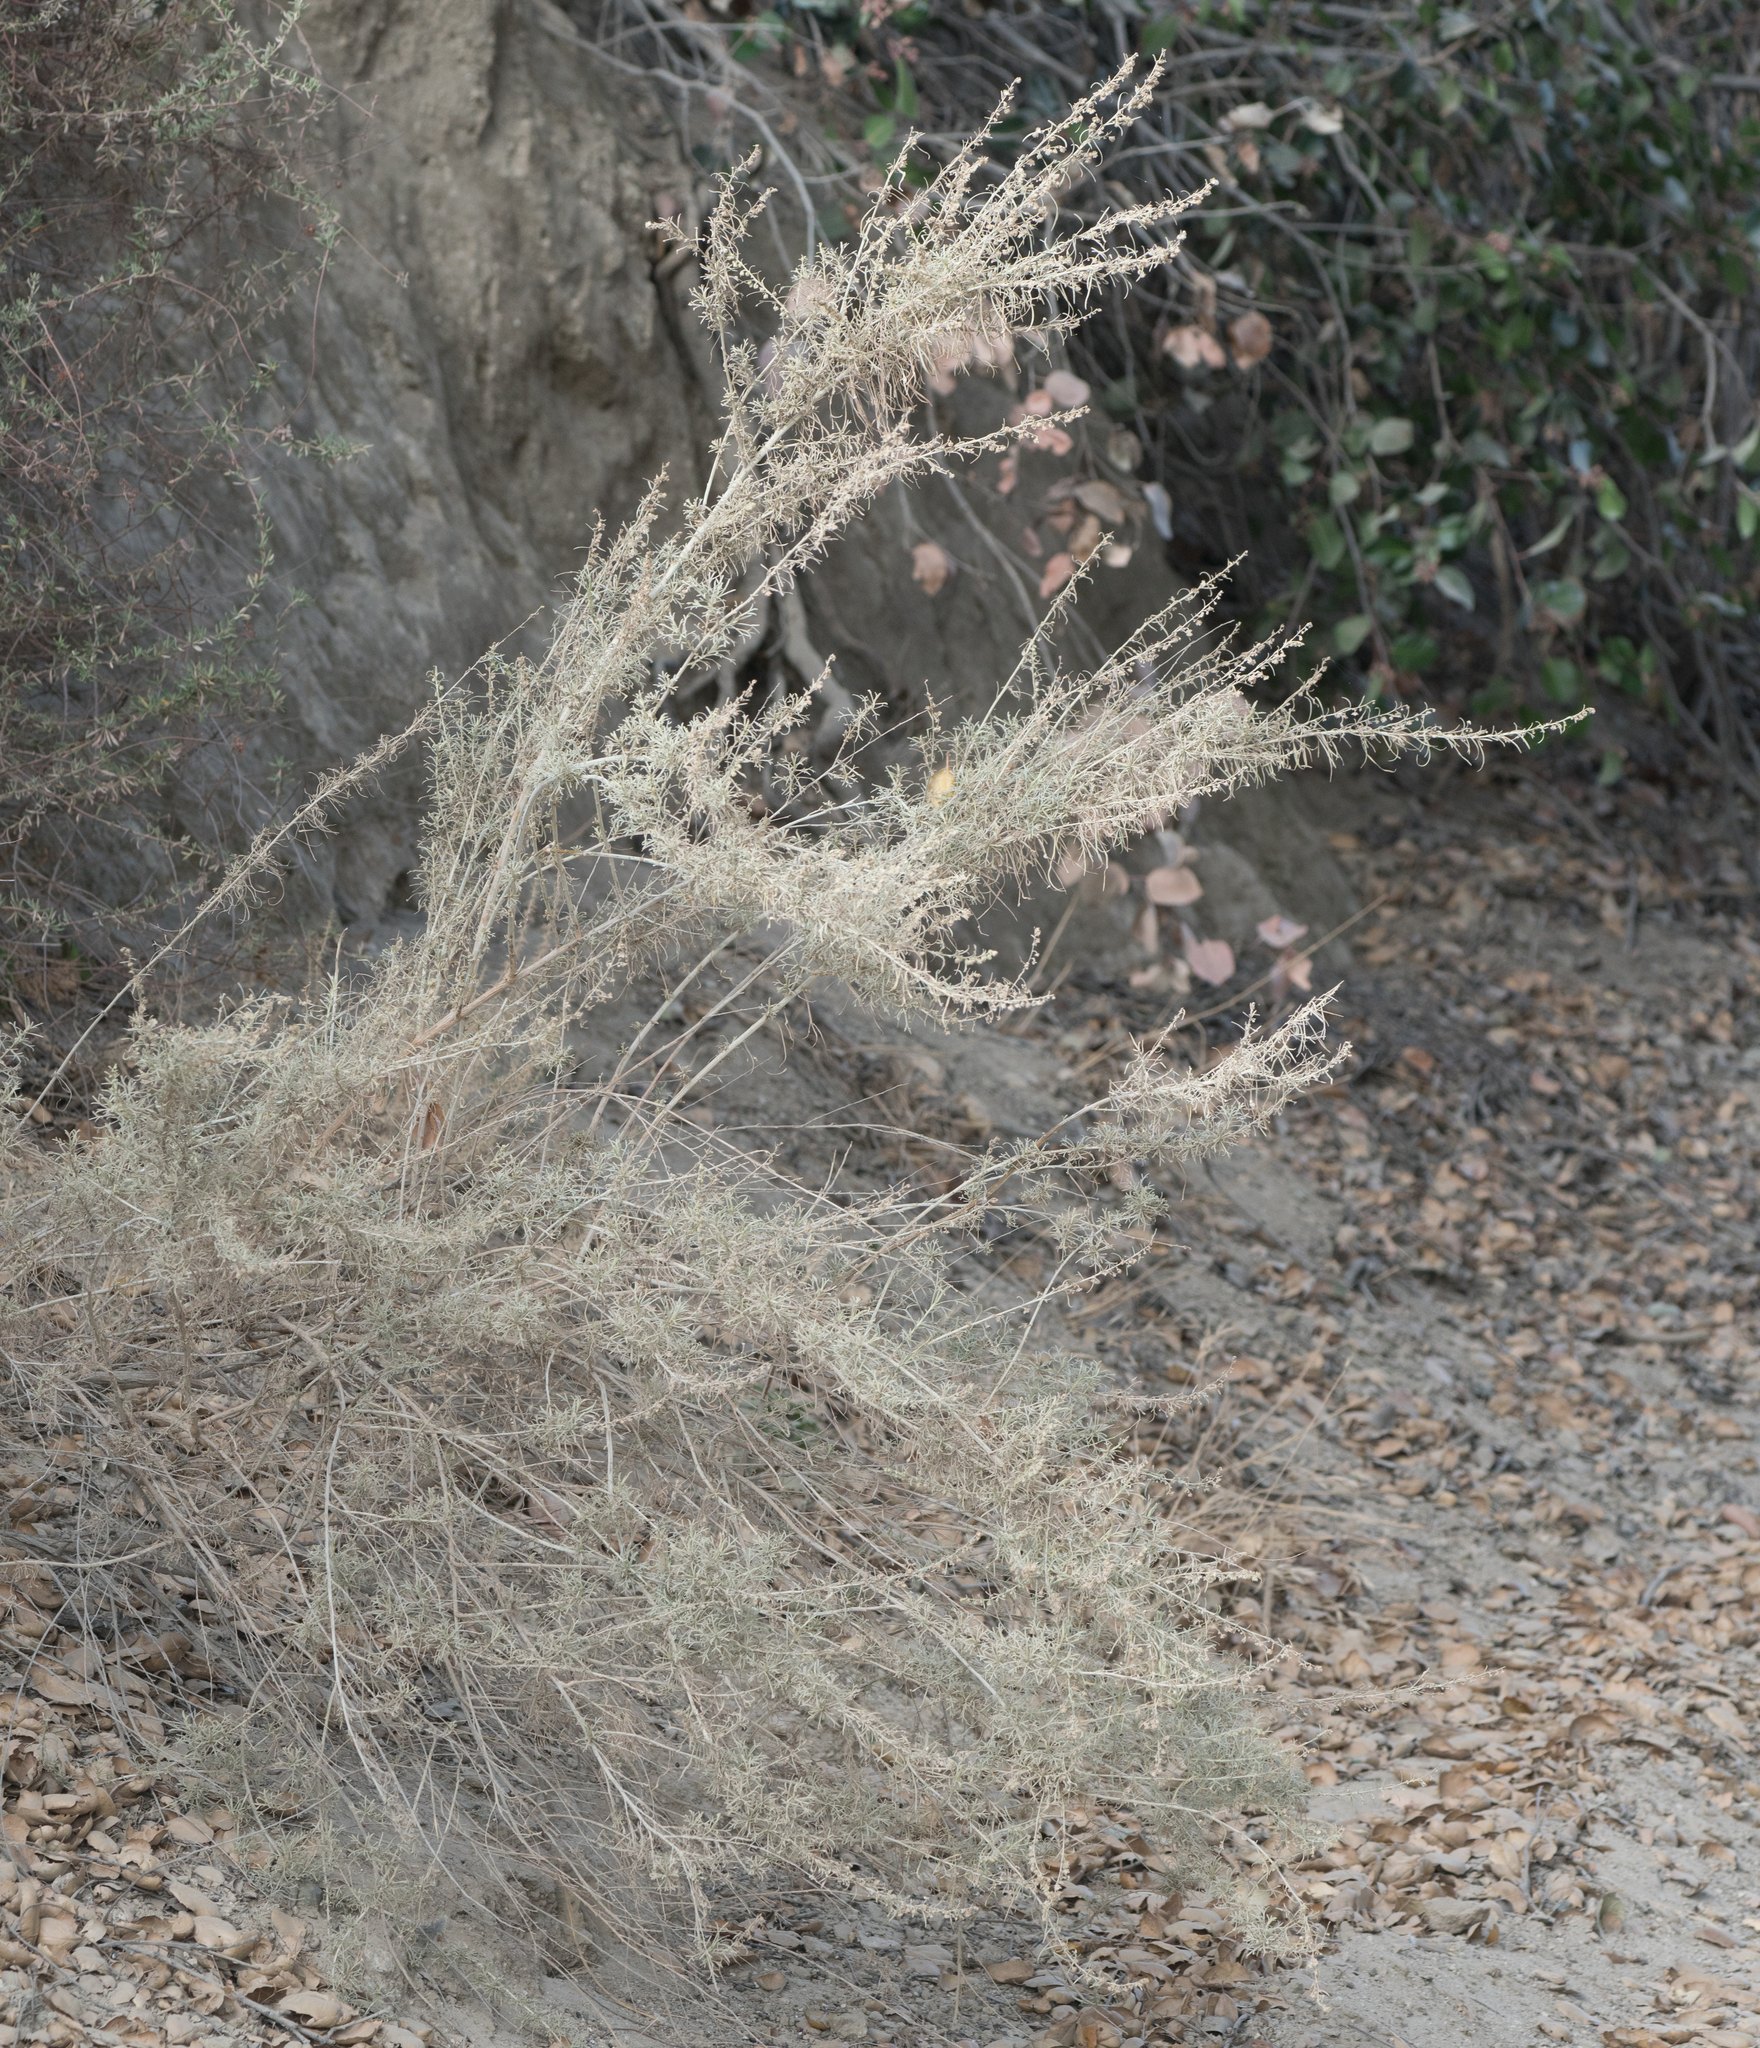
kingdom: Plantae
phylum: Tracheophyta
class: Magnoliopsida
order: Asterales
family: Asteraceae
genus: Artemisia
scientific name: Artemisia californica
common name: California sagebrush
